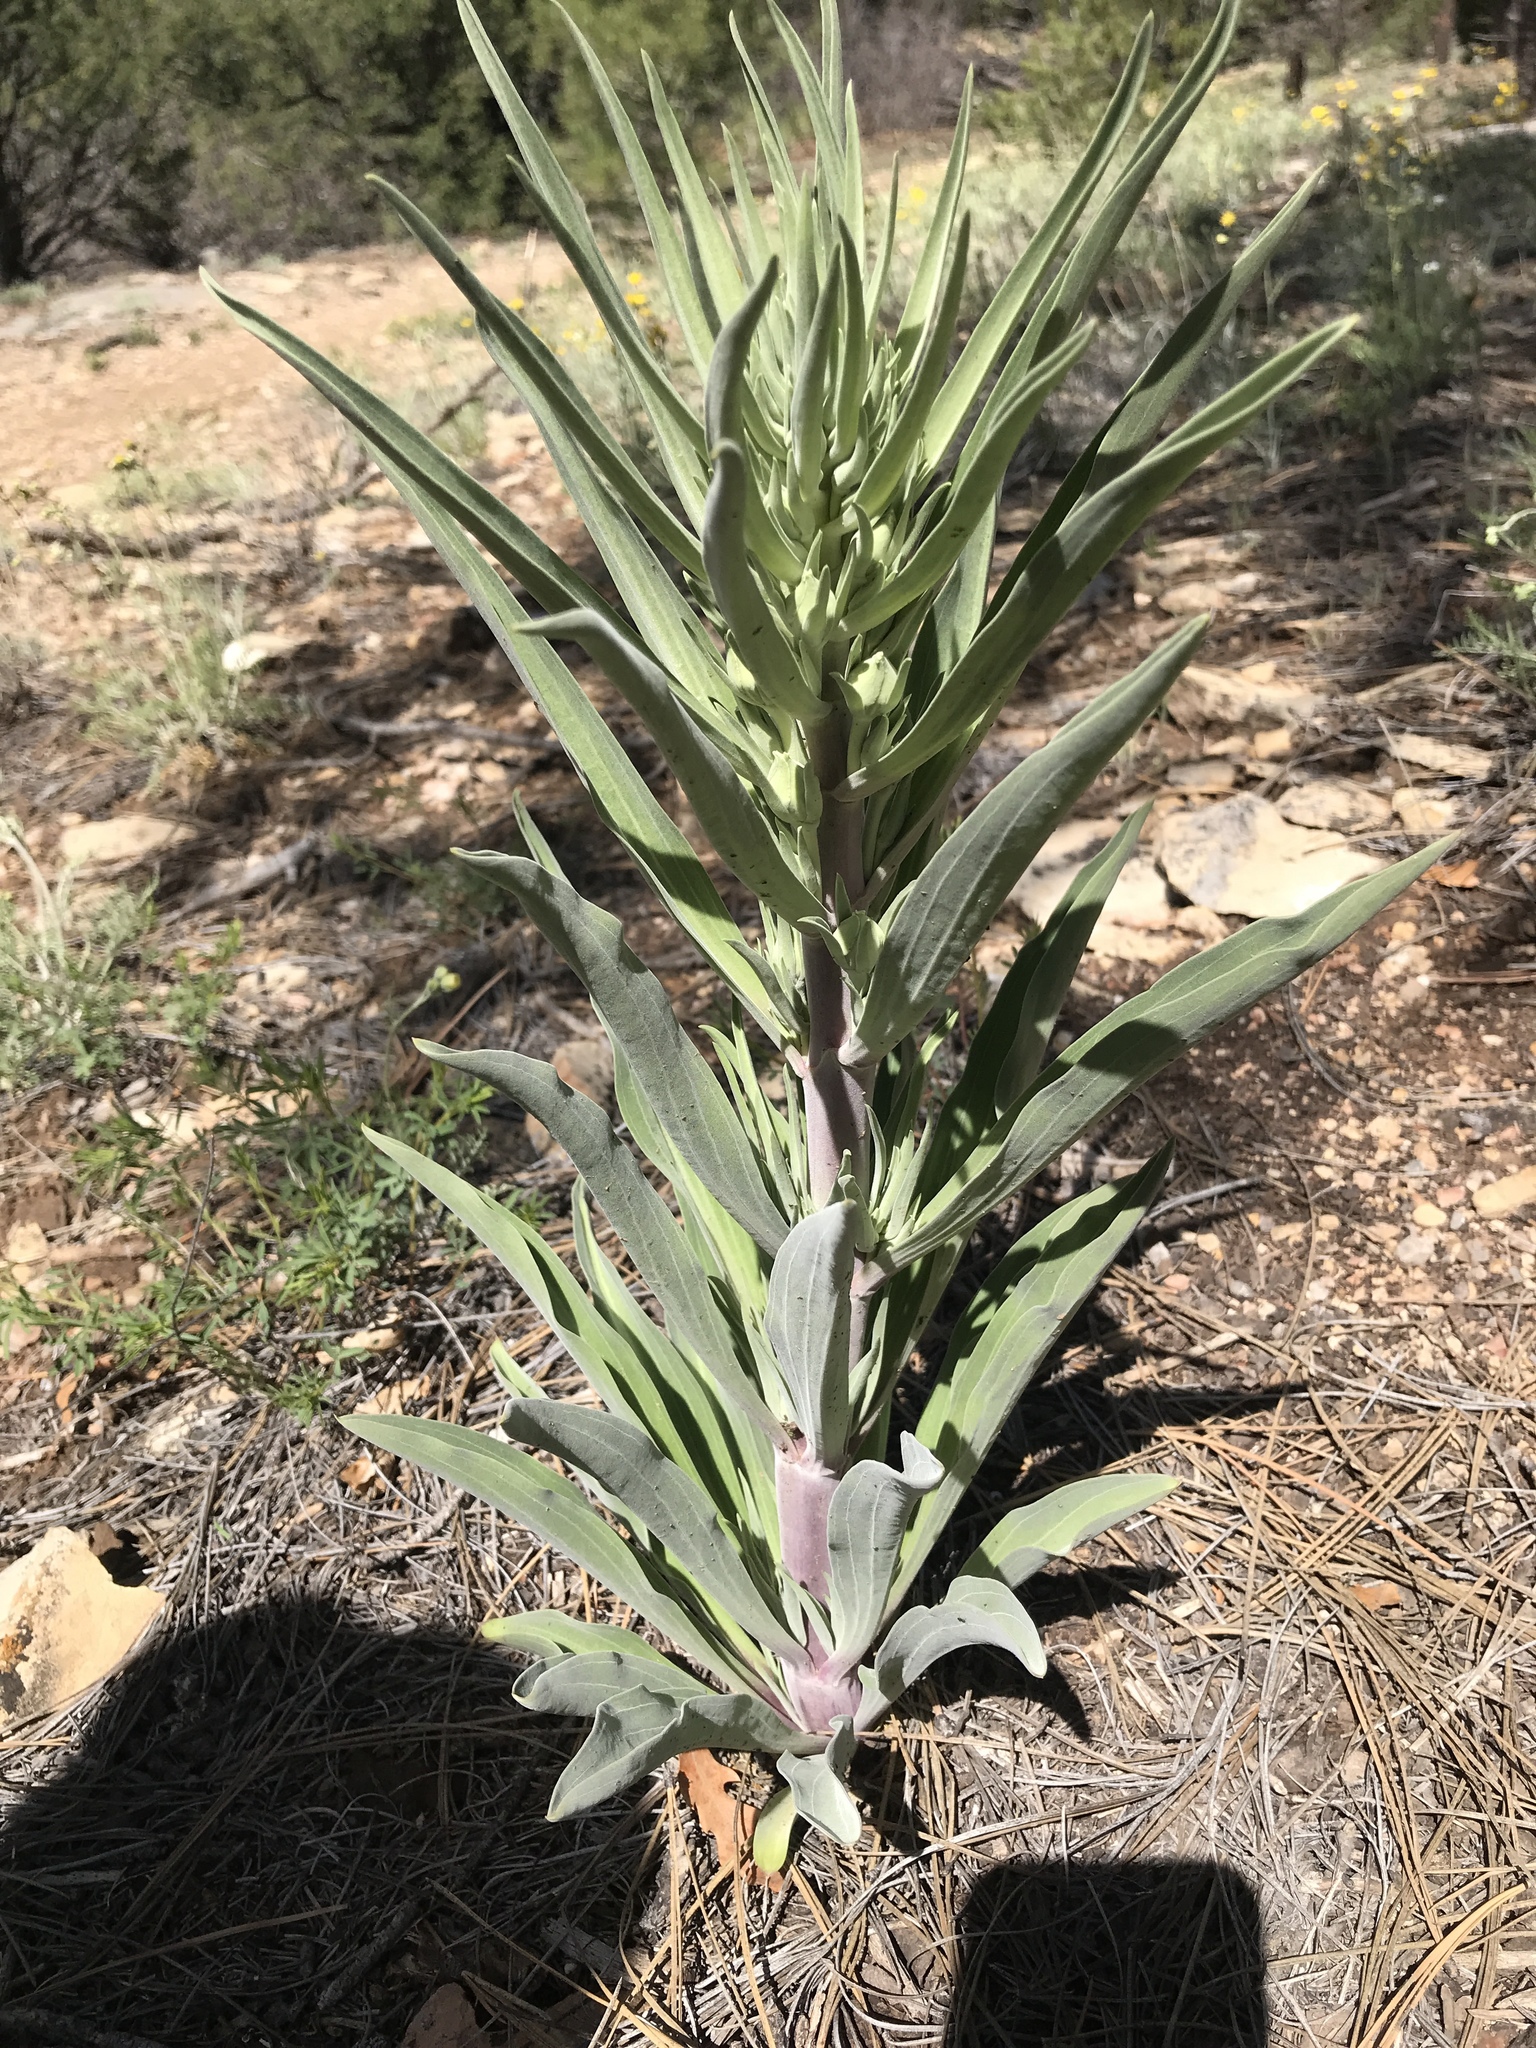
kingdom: Plantae
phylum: Tracheophyta
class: Magnoliopsida
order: Gentianales
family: Gentianaceae
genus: Frasera
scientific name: Frasera speciosa
